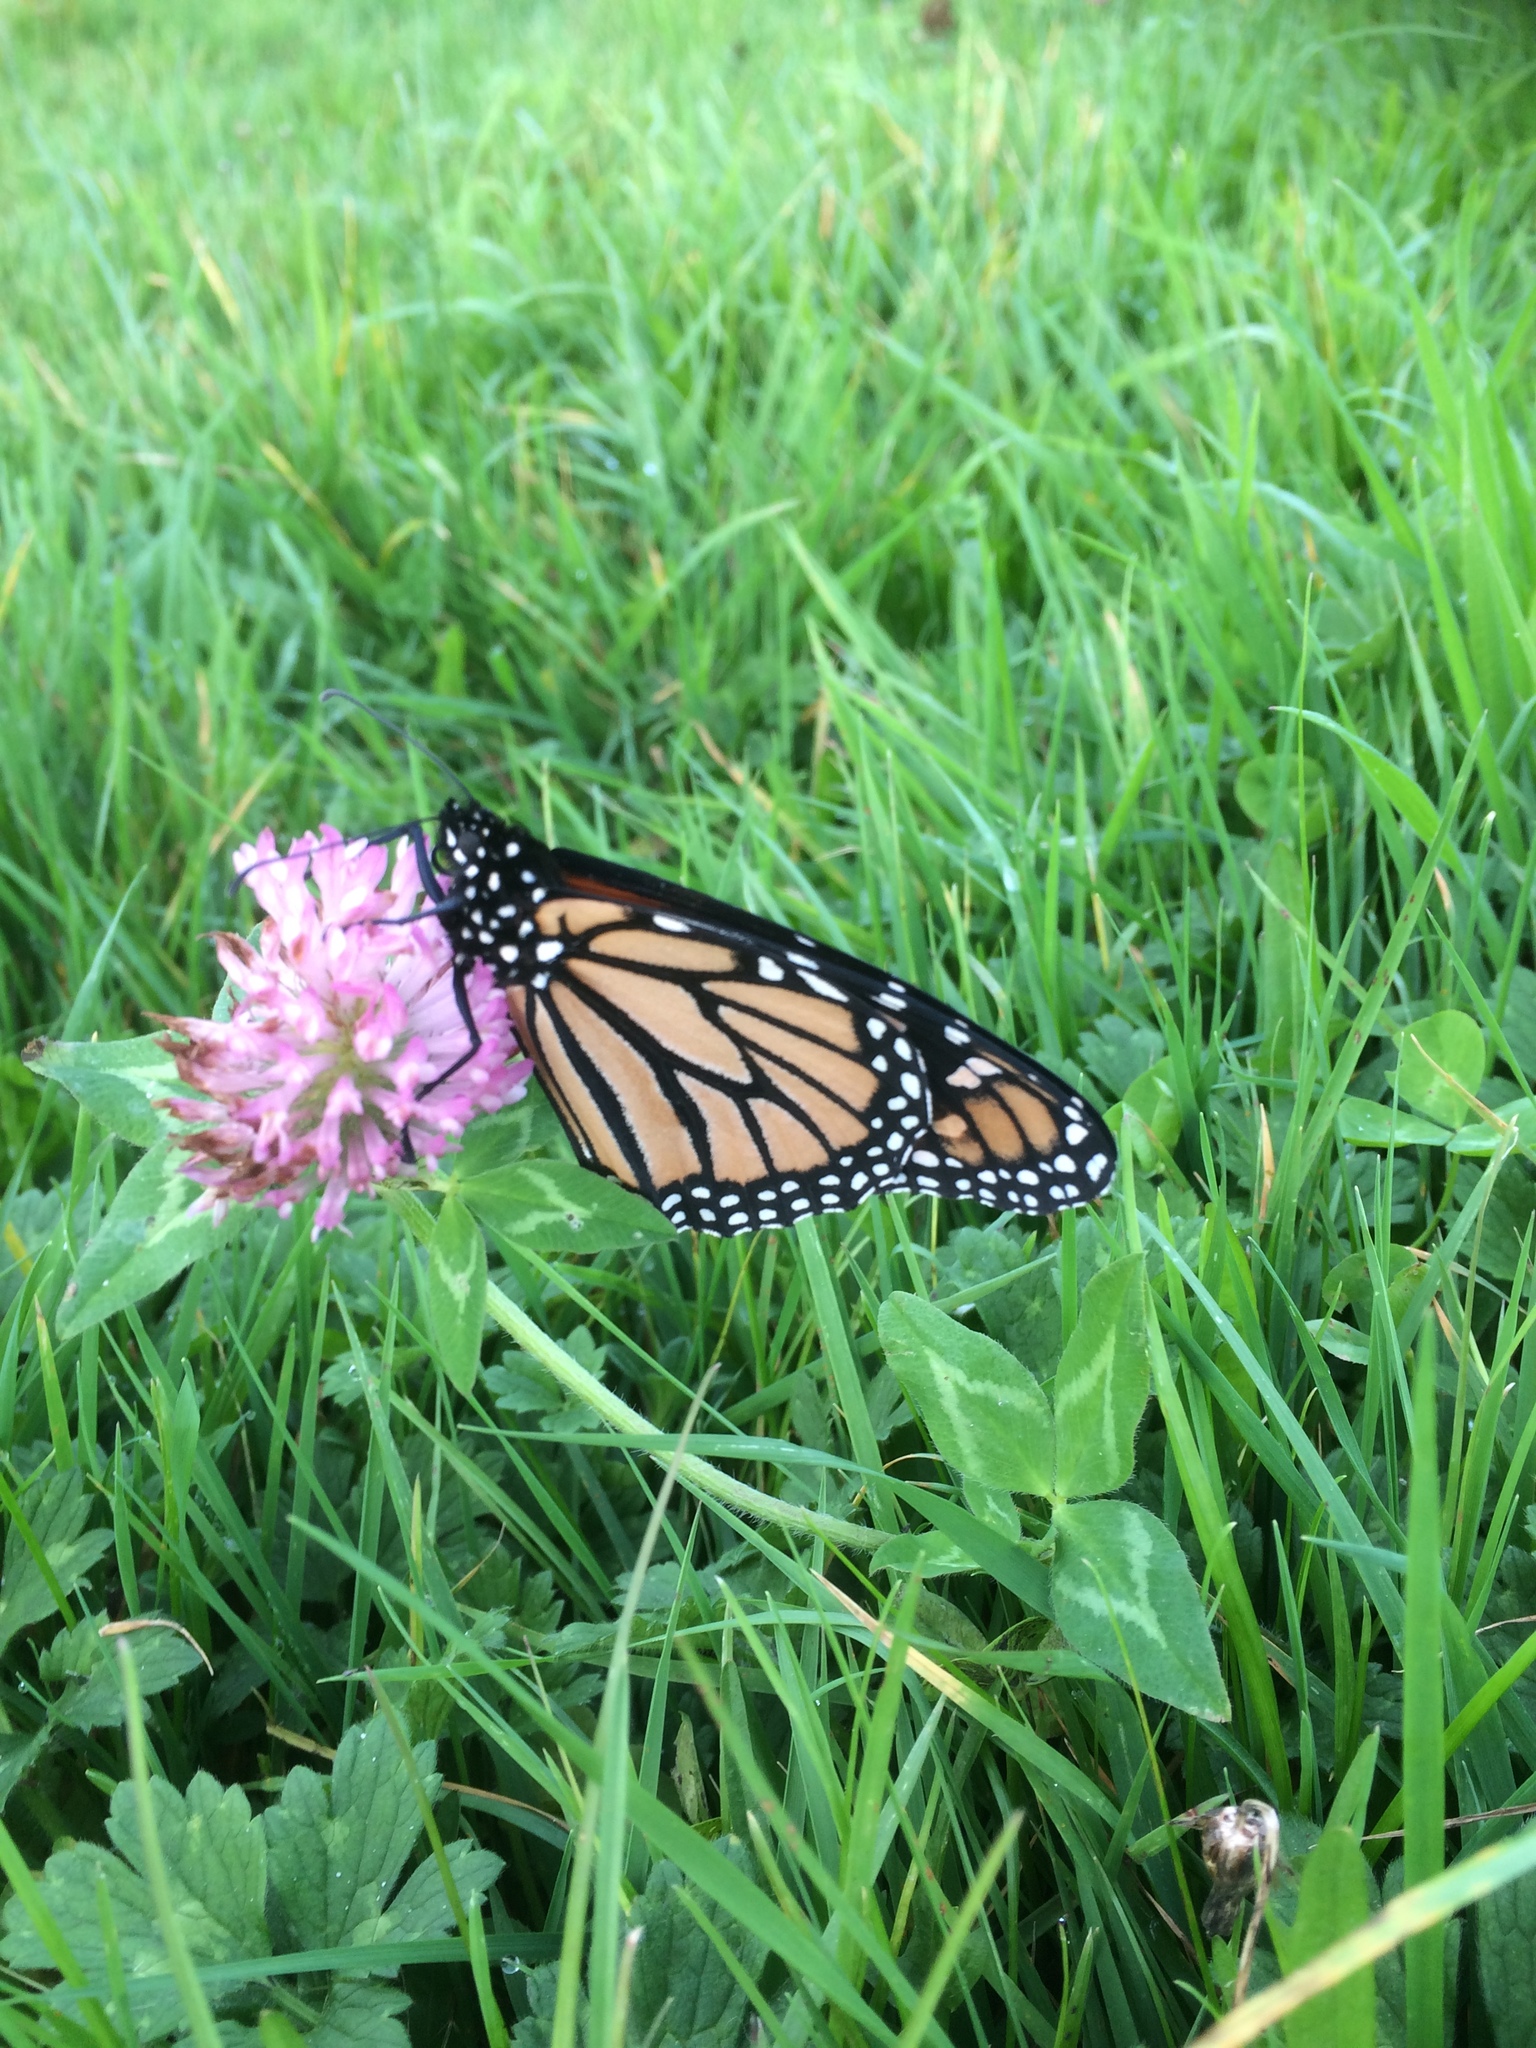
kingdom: Animalia
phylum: Arthropoda
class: Insecta
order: Lepidoptera
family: Nymphalidae
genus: Danaus
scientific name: Danaus plexippus
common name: Monarch
